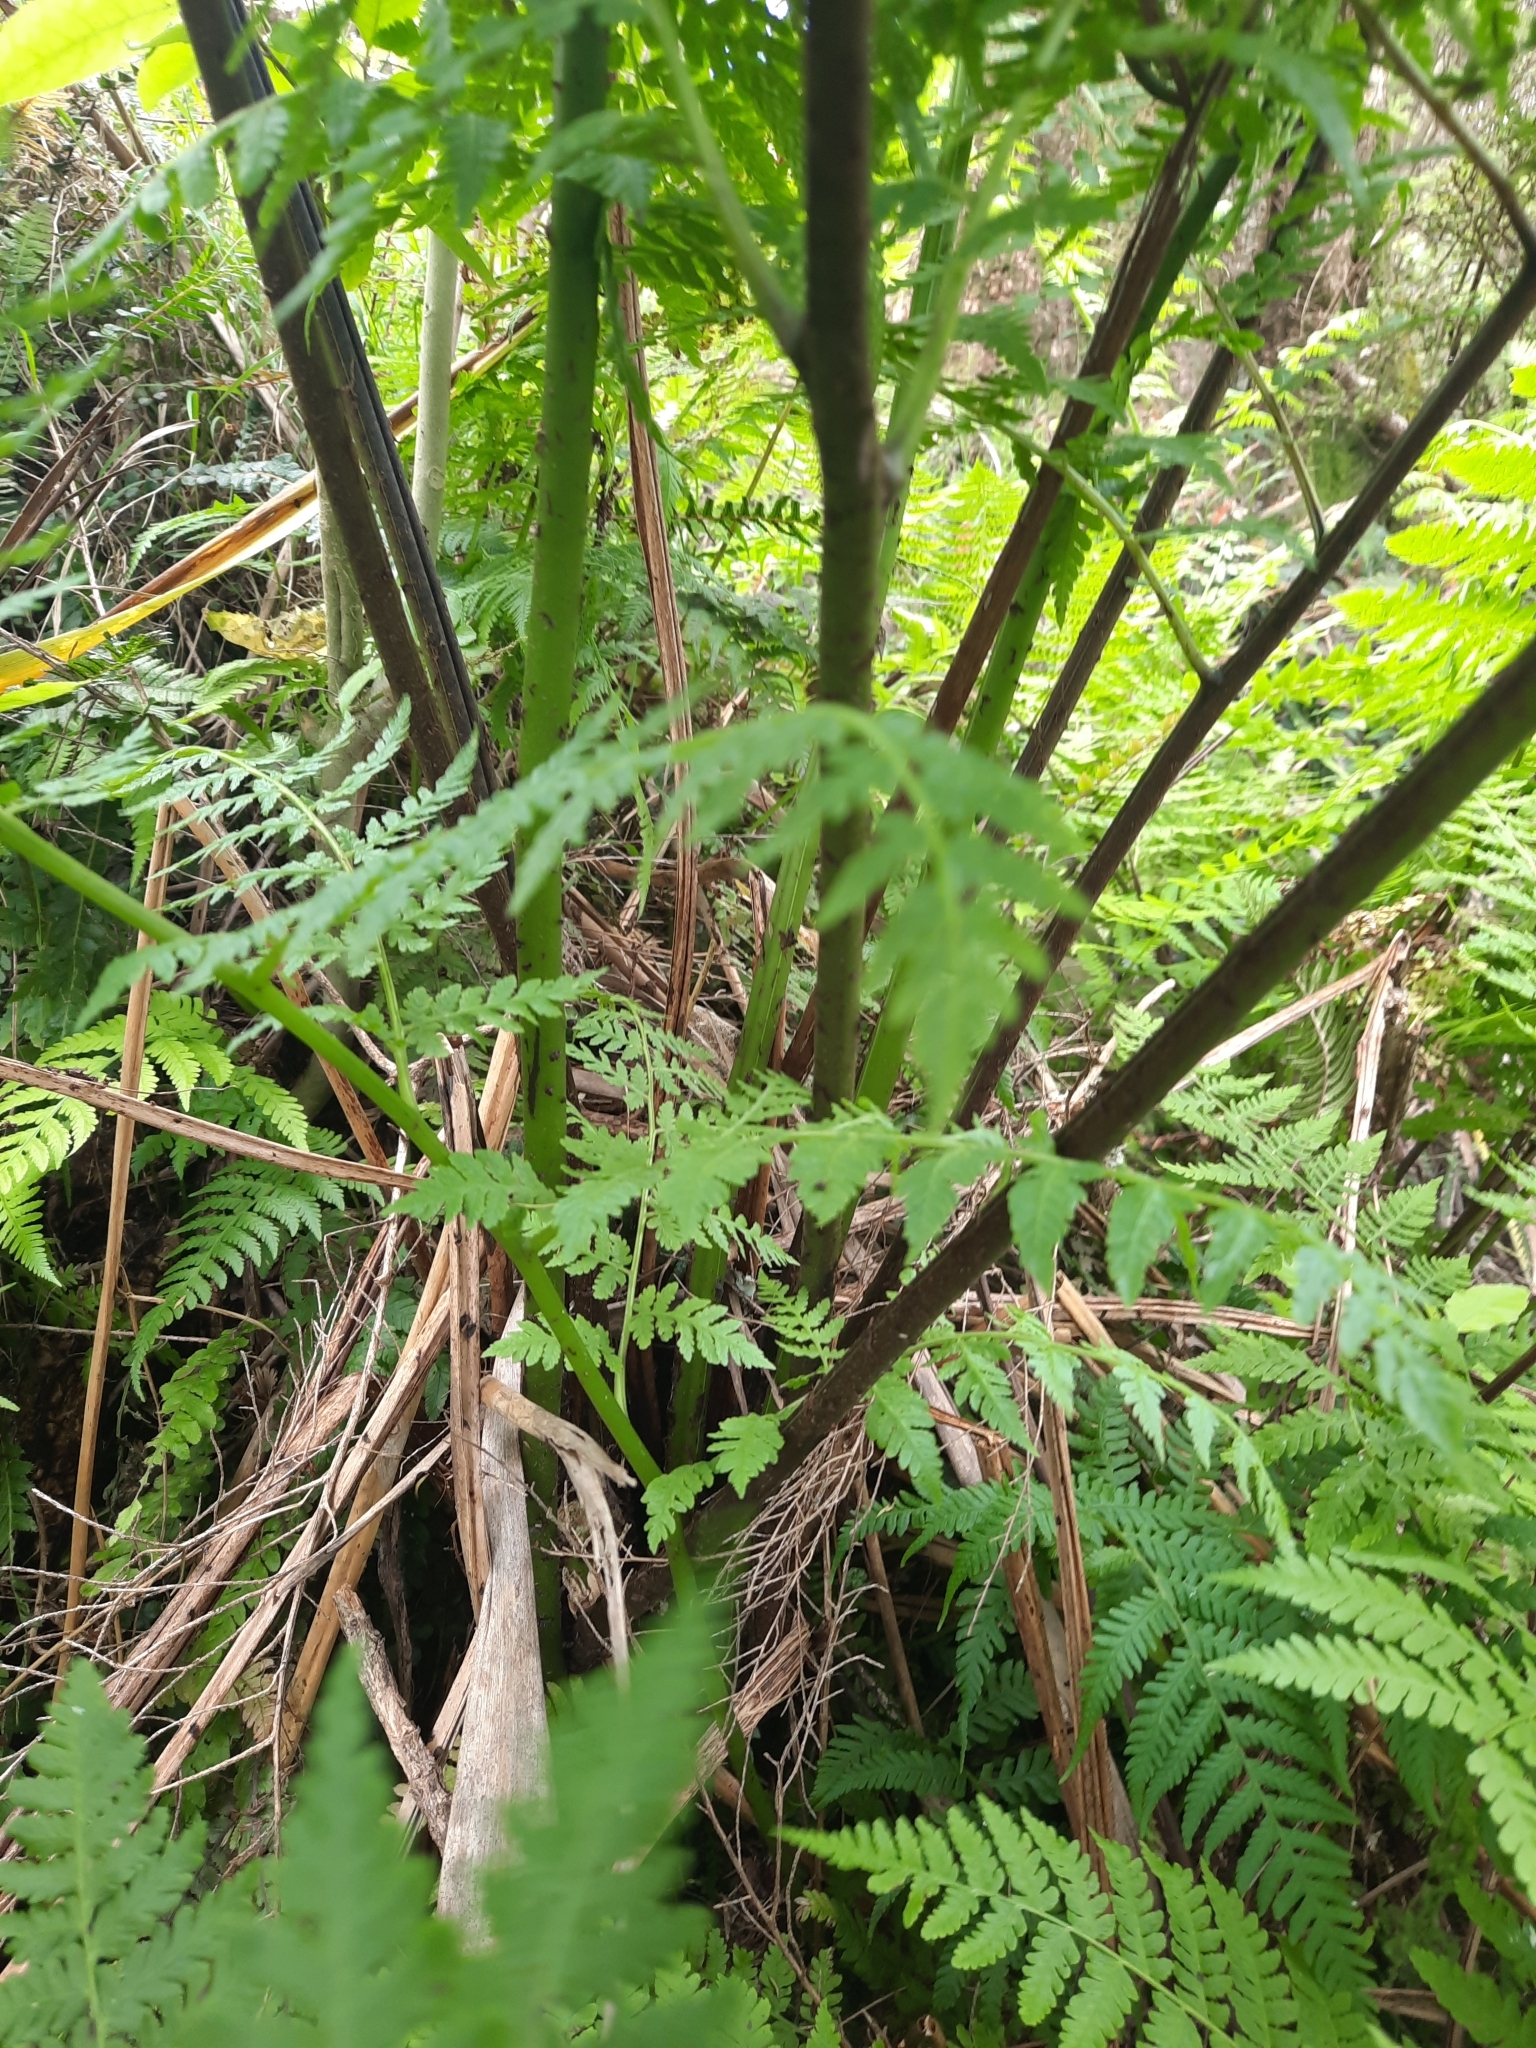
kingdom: Plantae
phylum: Tracheophyta
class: Polypodiopsida
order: Polypodiales
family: Athyriaceae
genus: Diplazium
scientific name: Diplazium australe
